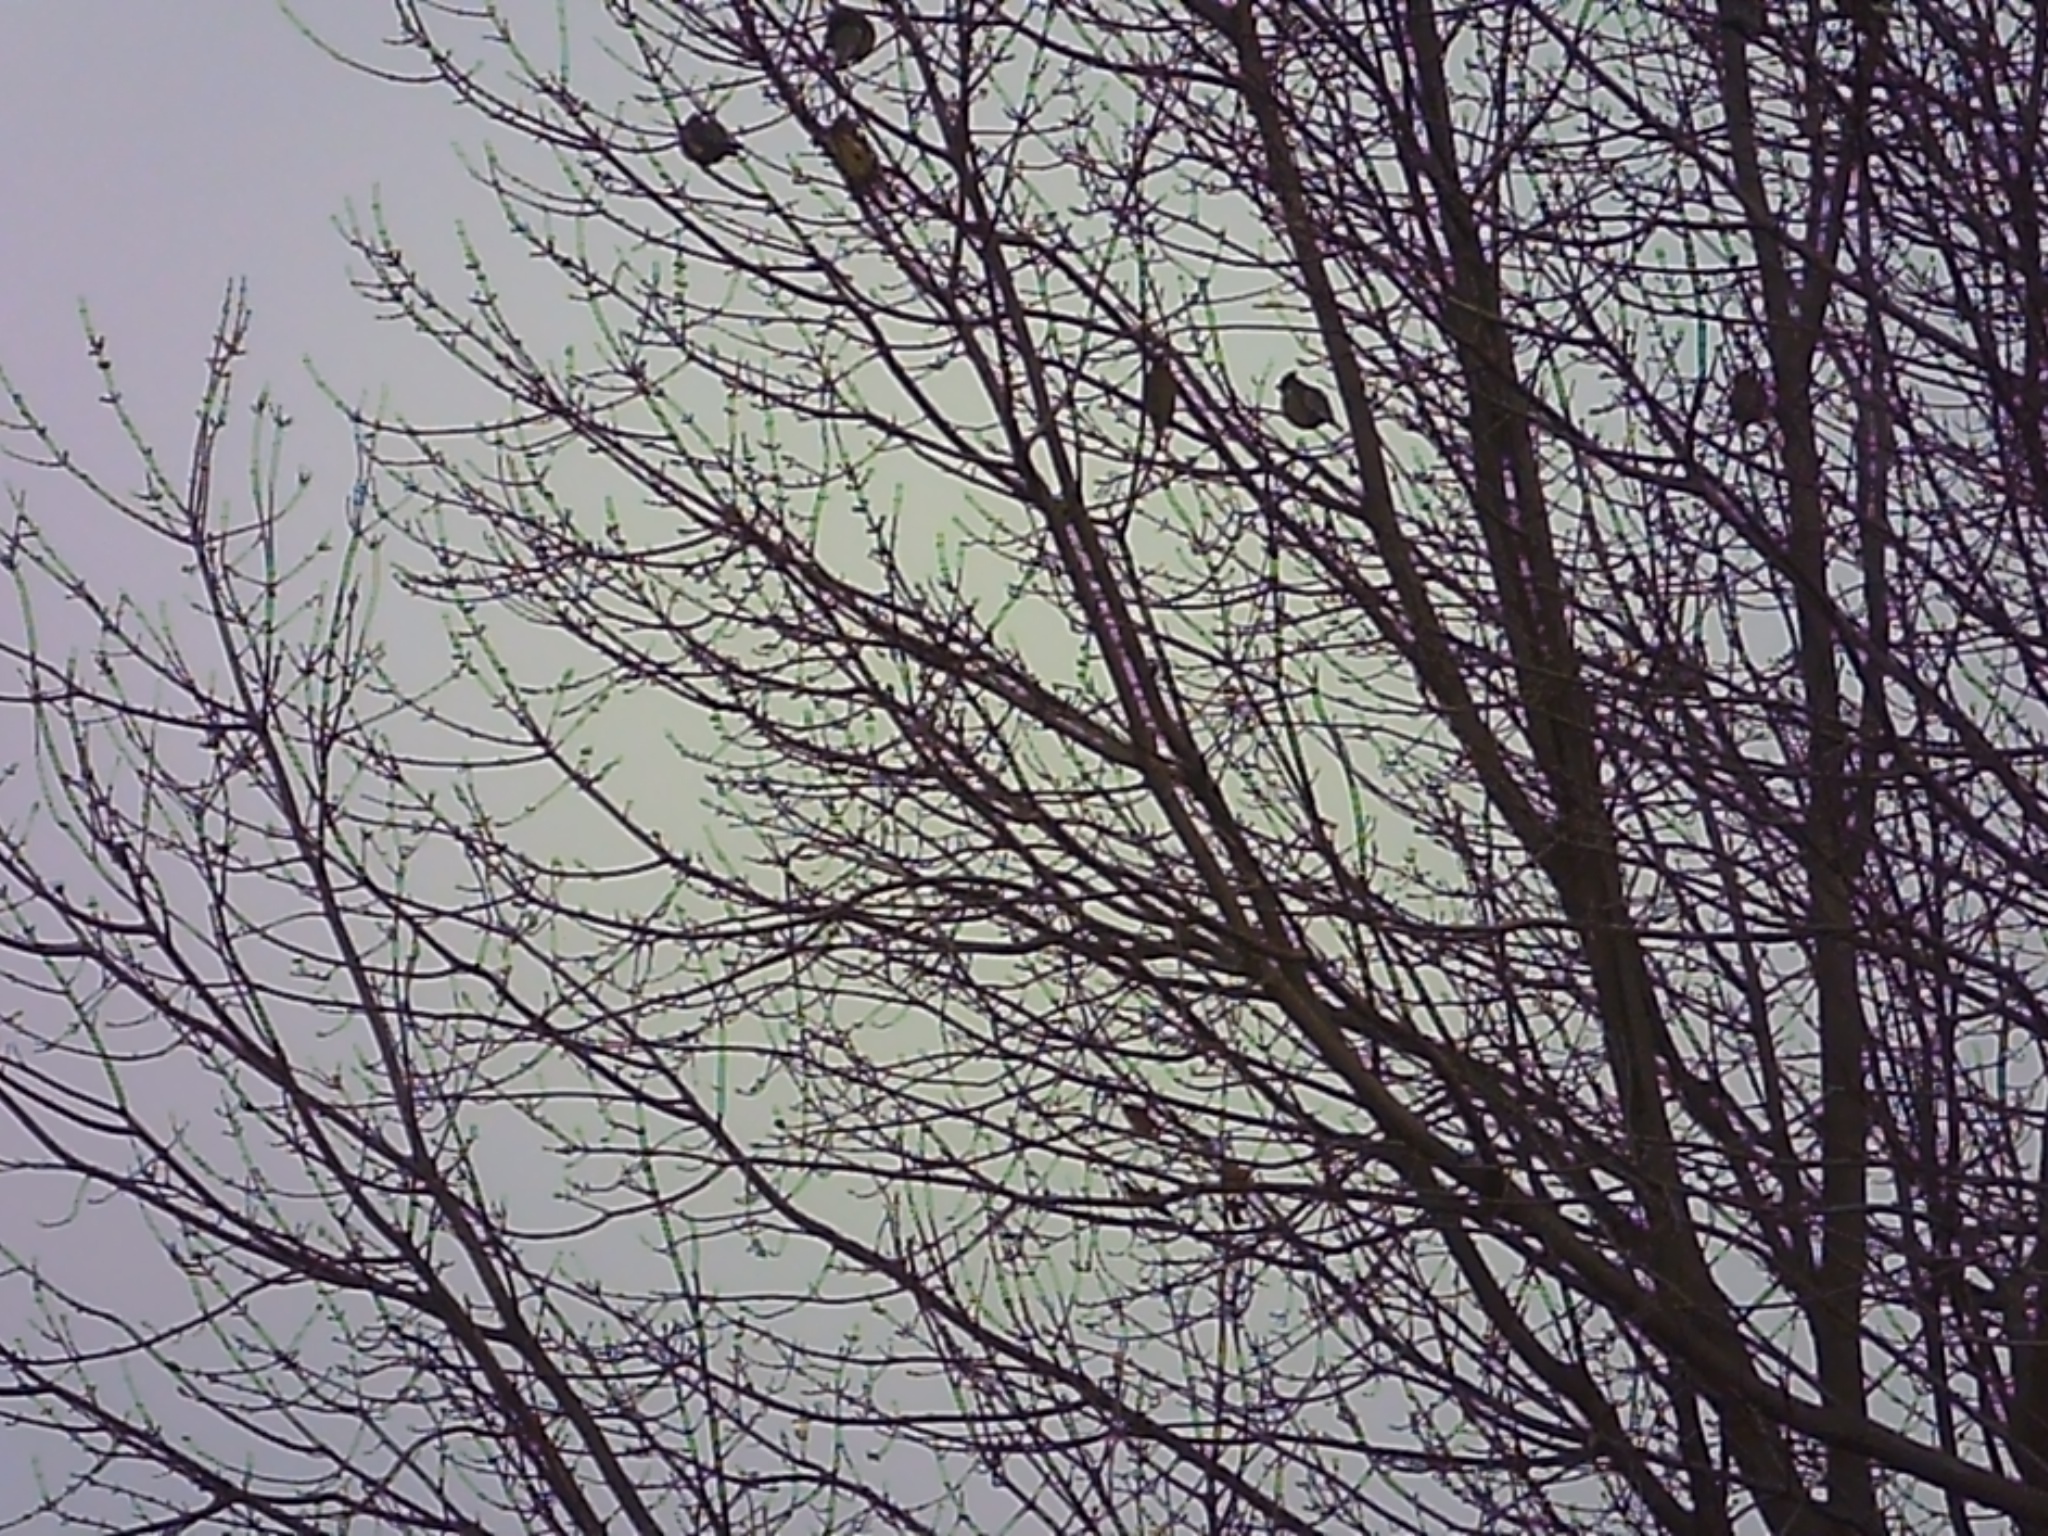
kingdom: Animalia
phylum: Chordata
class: Aves
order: Passeriformes
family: Bombycillidae
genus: Bombycilla
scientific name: Bombycilla cedrorum
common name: Cedar waxwing
